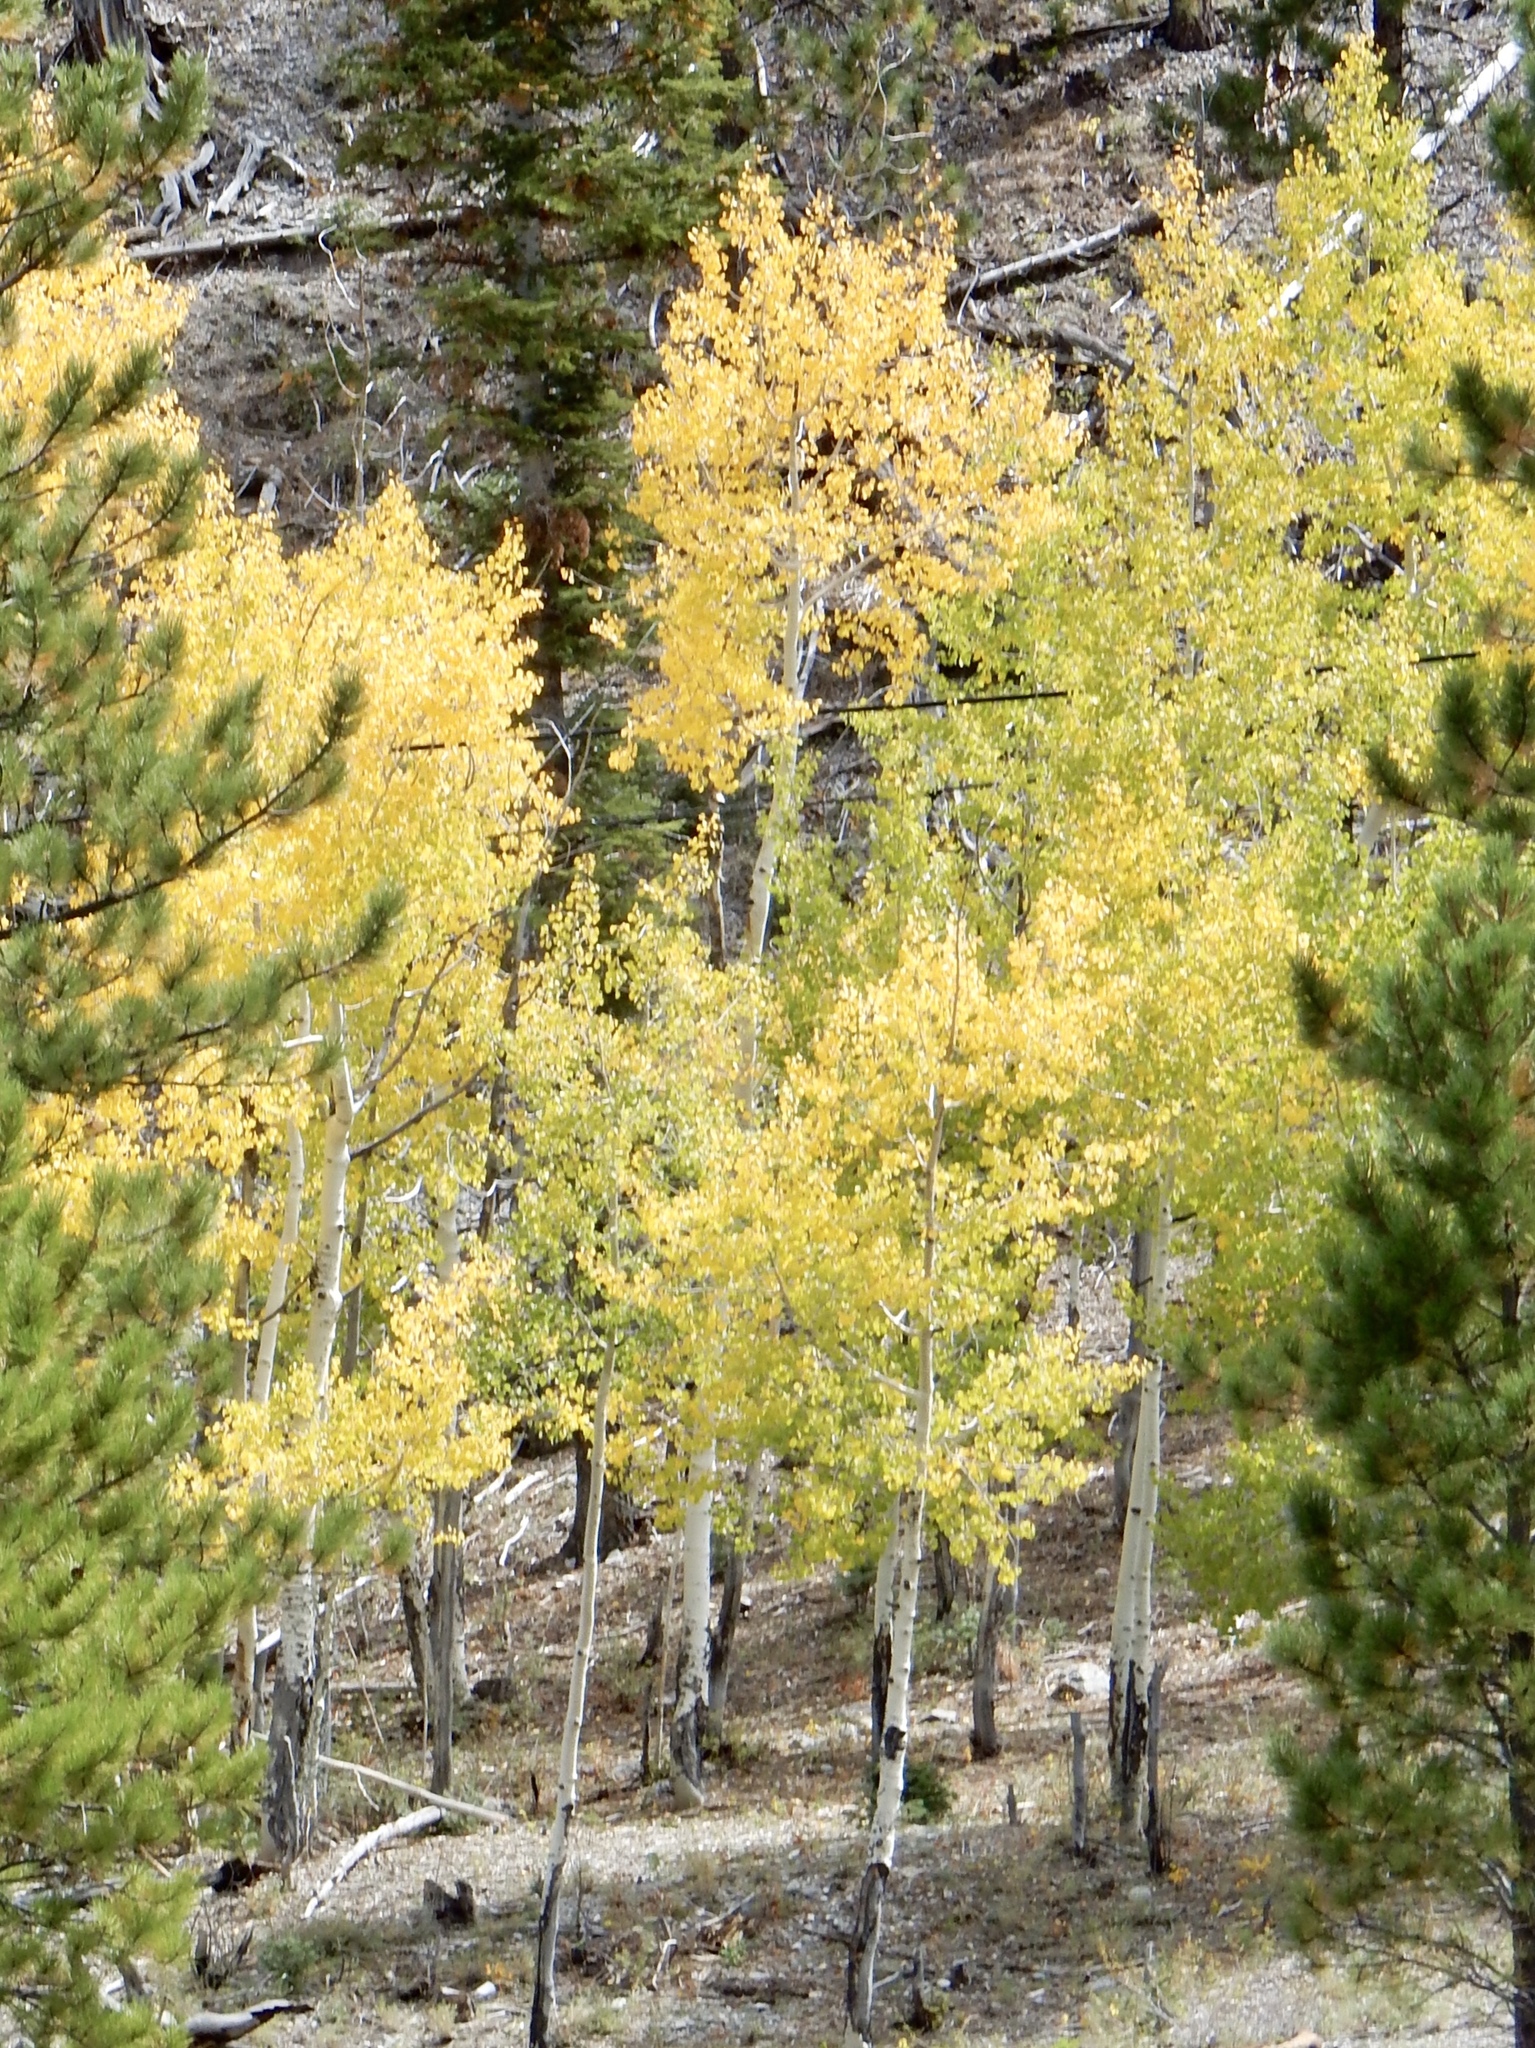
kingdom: Plantae
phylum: Tracheophyta
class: Magnoliopsida
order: Malpighiales
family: Salicaceae
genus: Populus
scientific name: Populus tremuloides
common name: Quaking aspen
